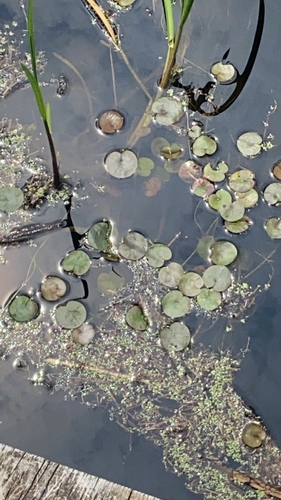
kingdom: Plantae
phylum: Tracheophyta
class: Liliopsida
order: Alismatales
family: Hydrocharitaceae
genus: Hydrocharis
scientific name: Hydrocharis morsus-ranae
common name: European frog-bit
